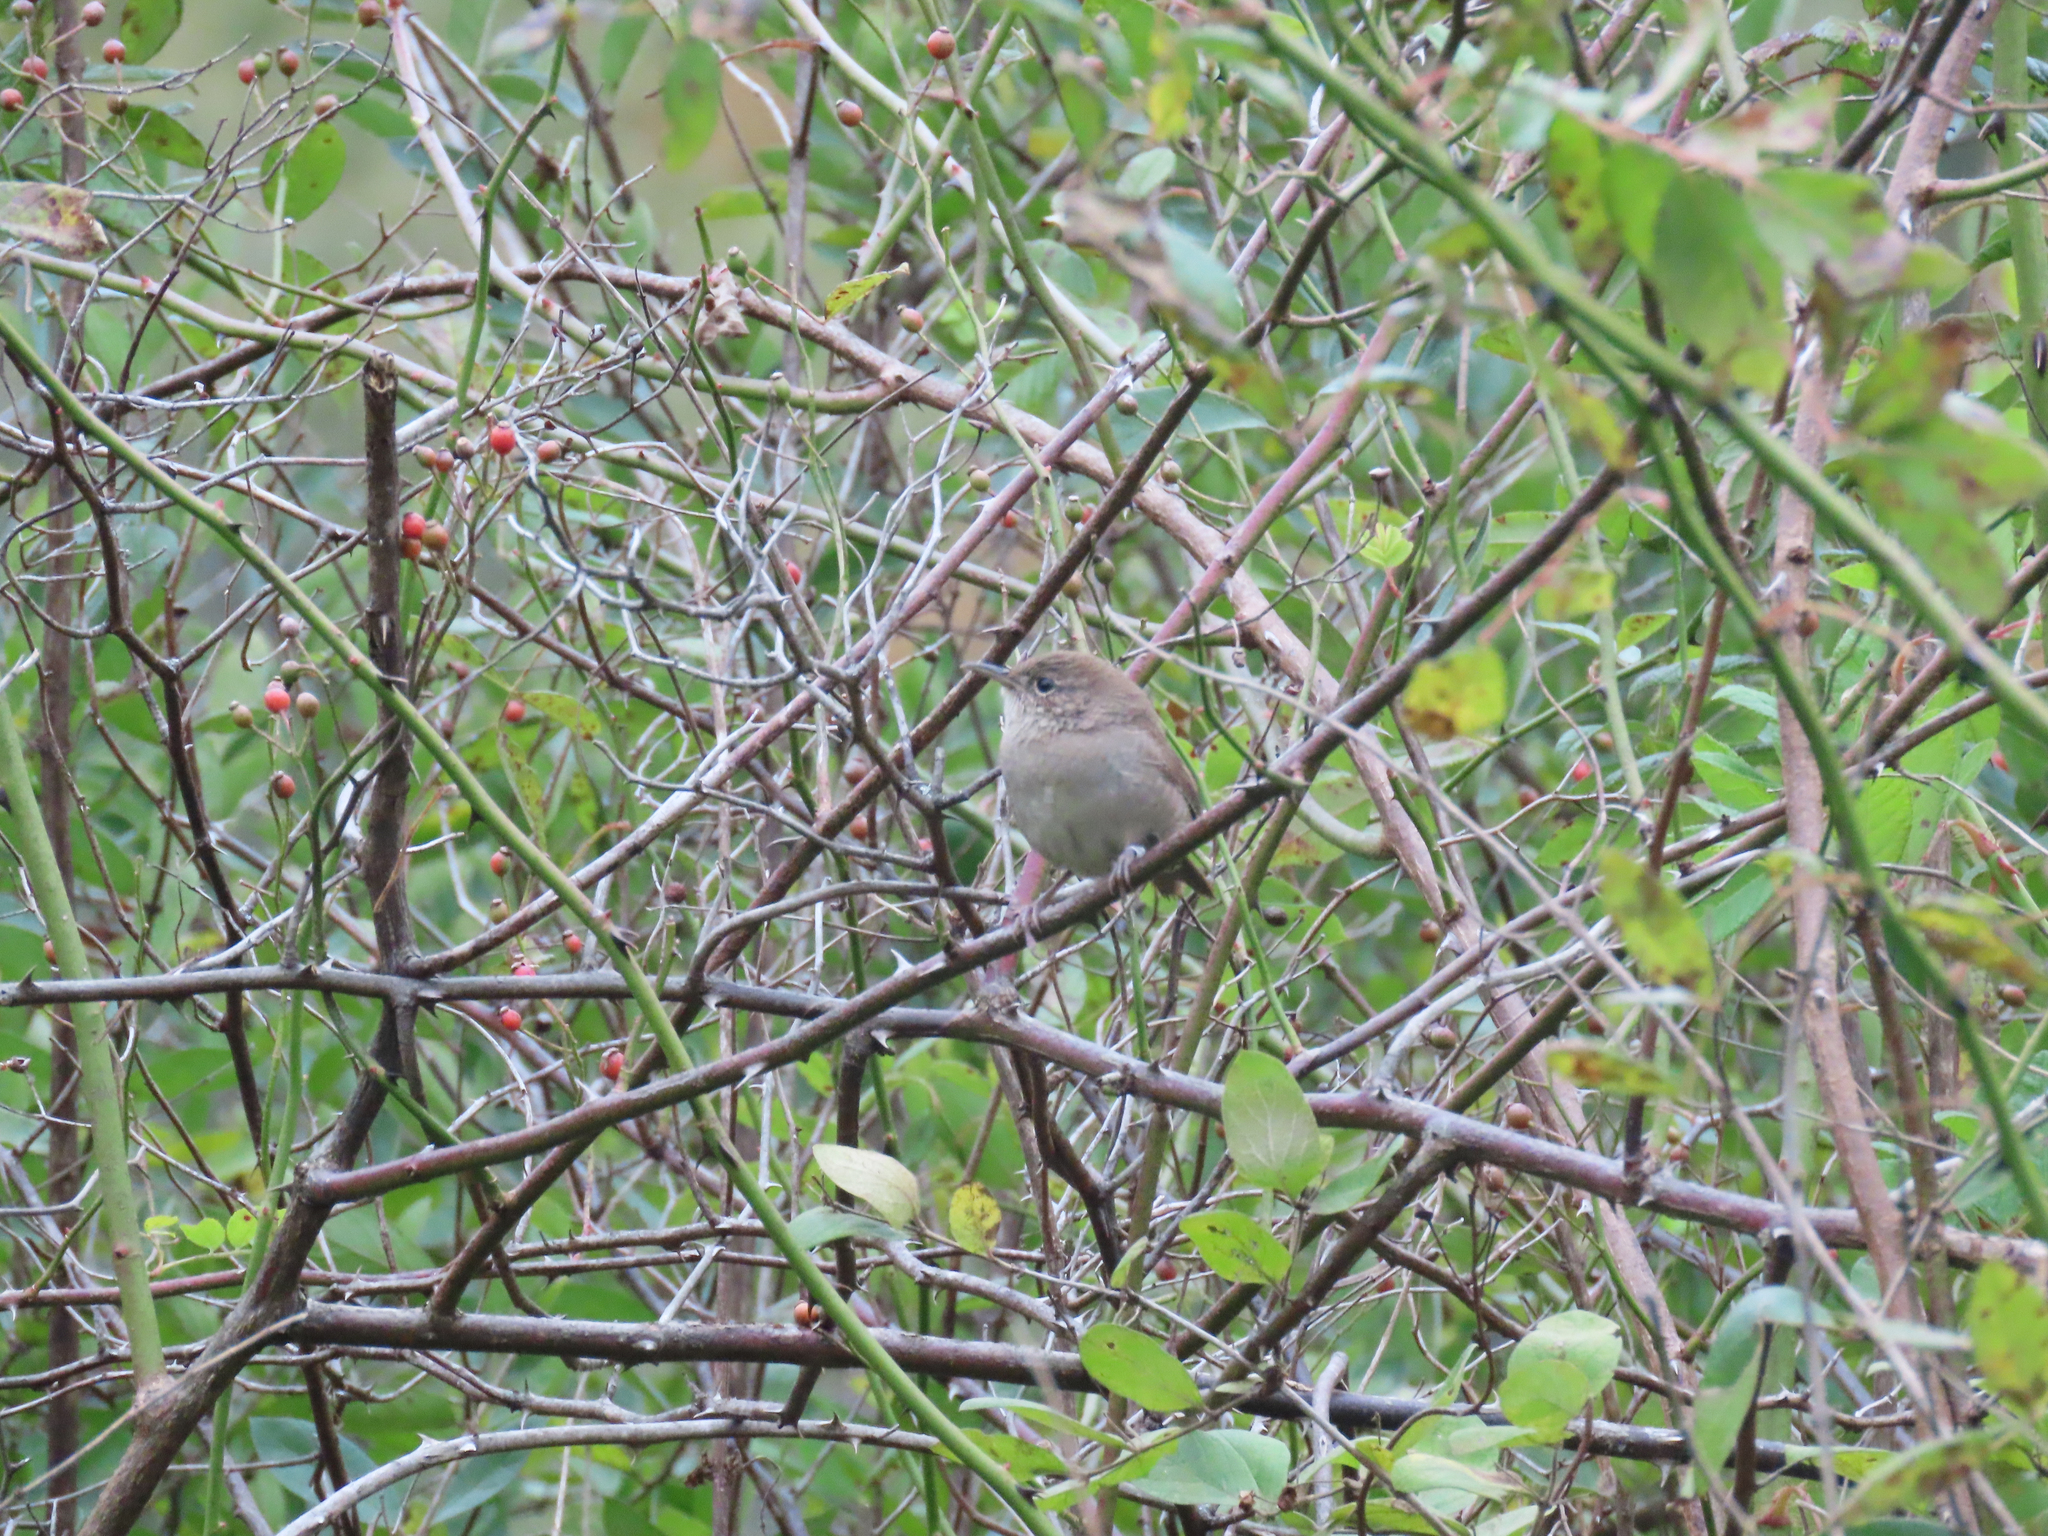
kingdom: Animalia
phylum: Chordata
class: Aves
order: Passeriformes
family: Troglodytidae
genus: Troglodytes
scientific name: Troglodytes aedon
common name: House wren
